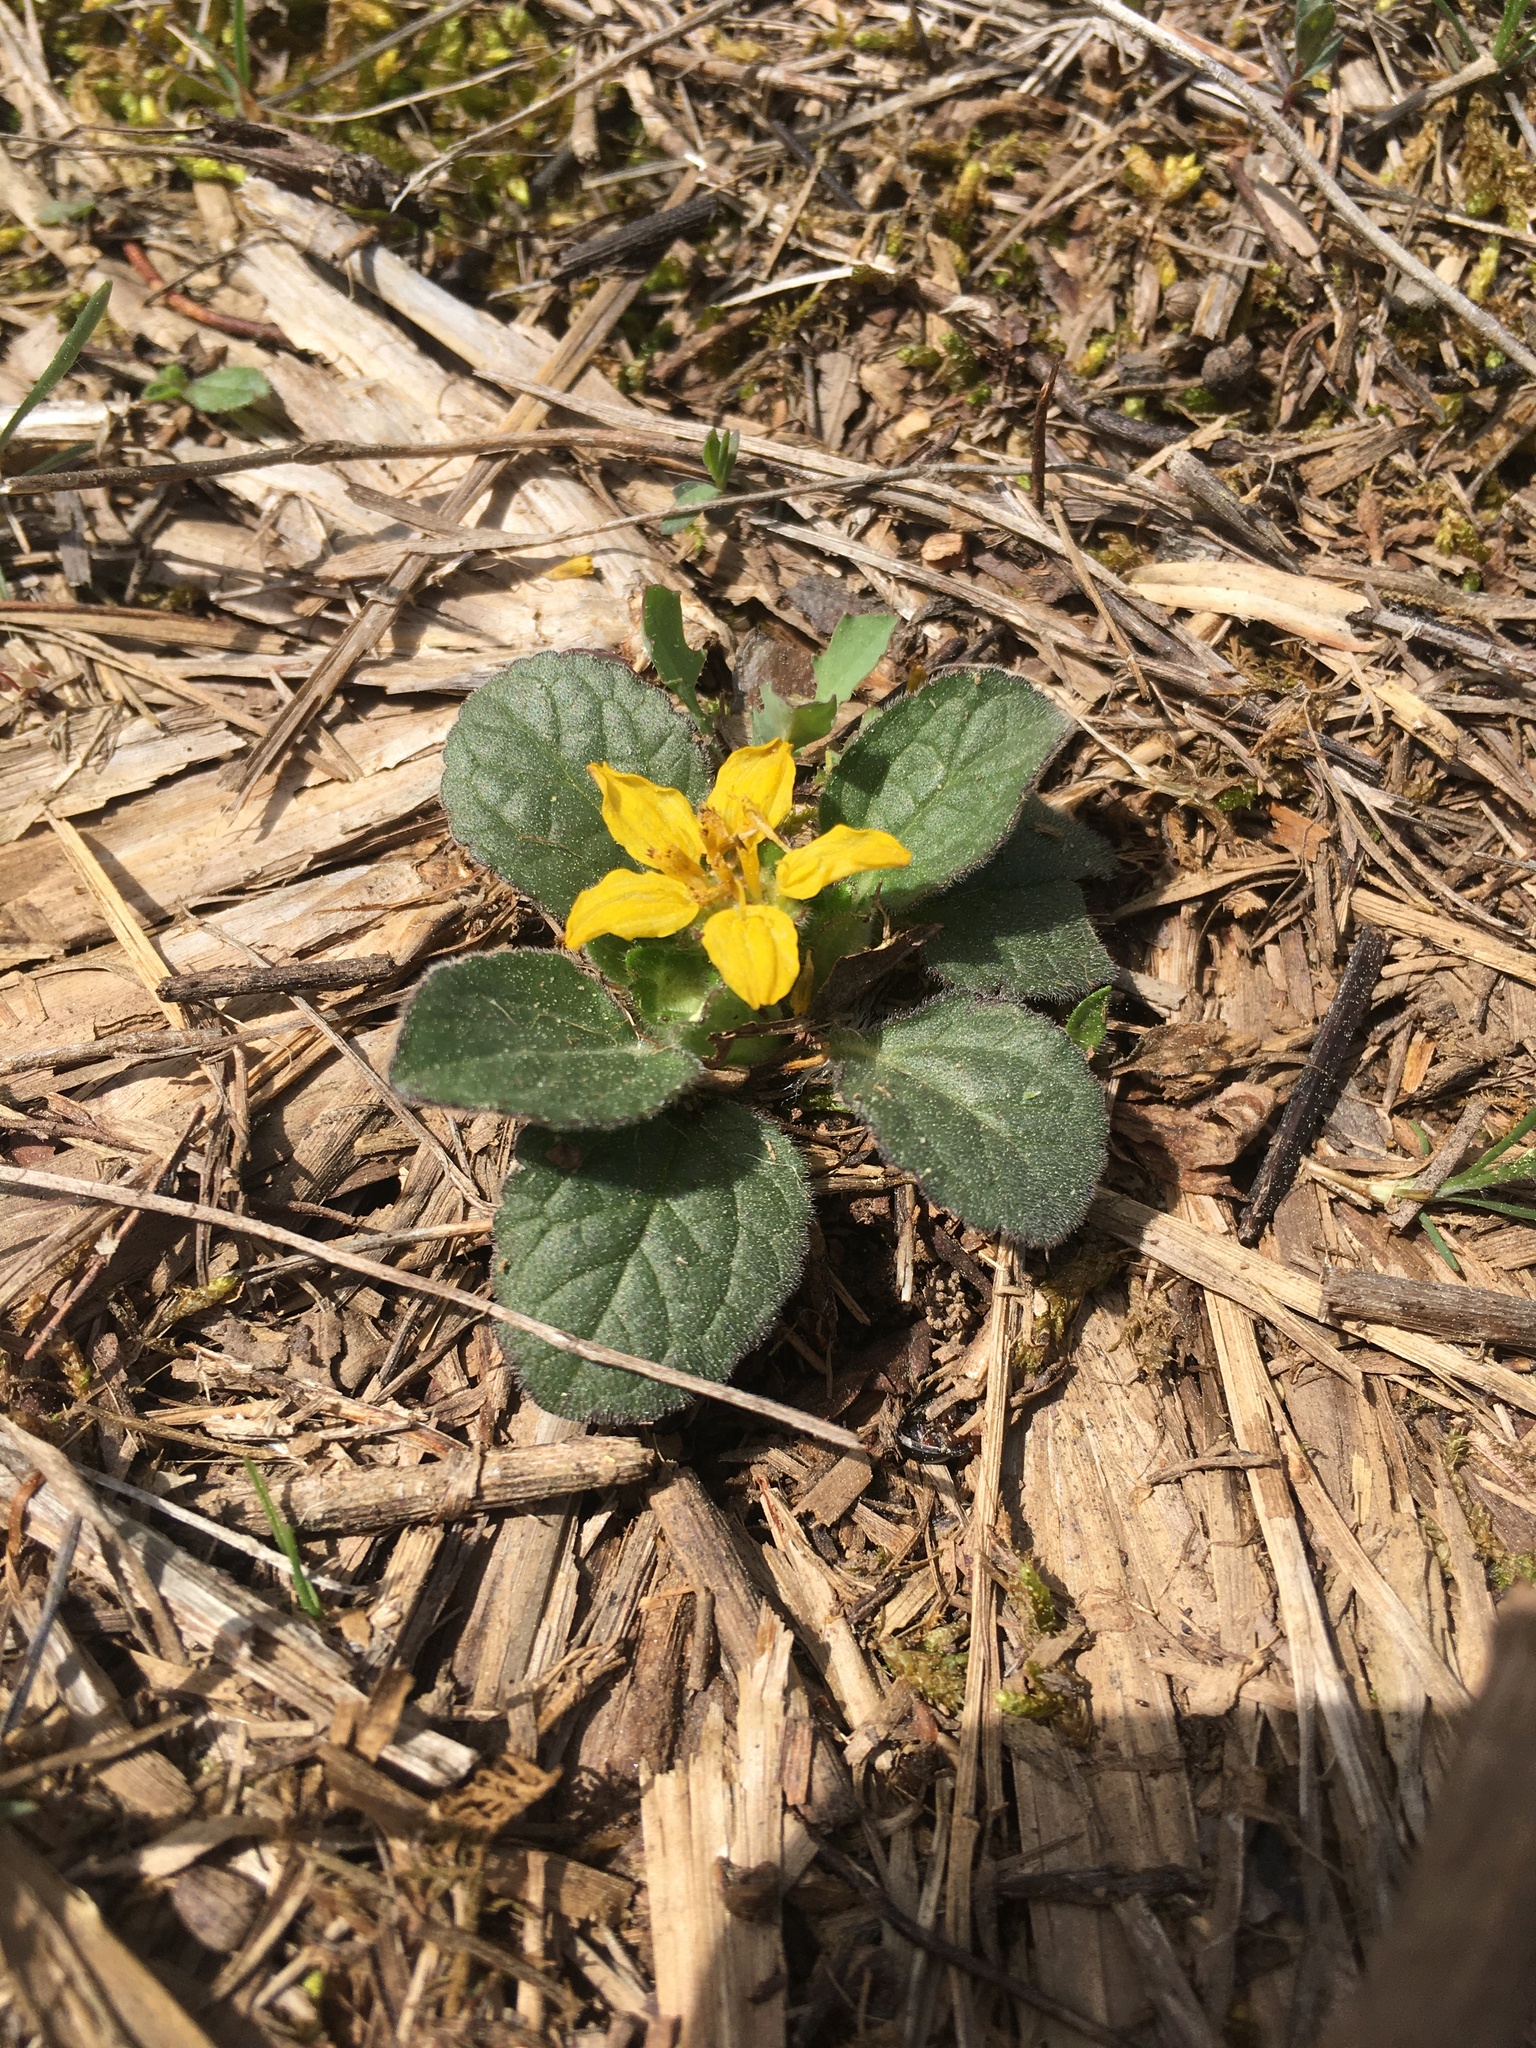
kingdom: Plantae
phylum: Tracheophyta
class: Magnoliopsida
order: Asterales
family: Asteraceae
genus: Chrysogonum
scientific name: Chrysogonum virginianum
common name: Golden-knee
